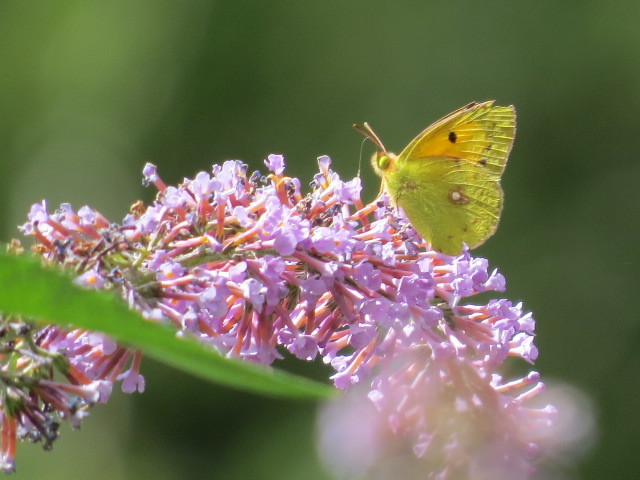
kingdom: Animalia
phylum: Arthropoda
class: Insecta
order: Lepidoptera
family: Pieridae
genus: Colias
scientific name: Colias croceus
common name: Clouded yellow
